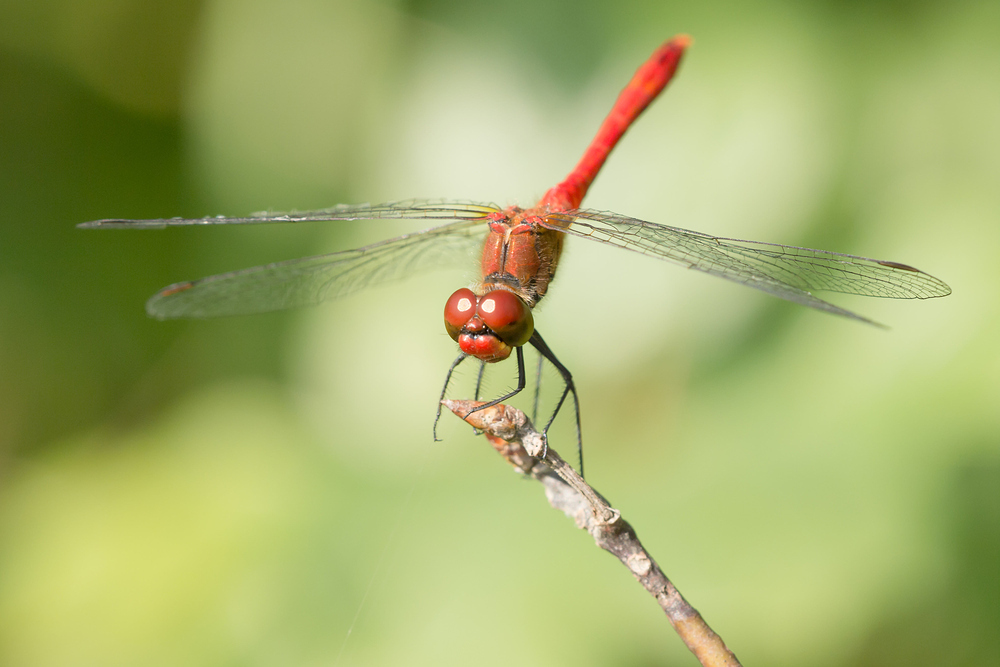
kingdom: Animalia
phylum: Arthropoda
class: Insecta
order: Odonata
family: Libellulidae
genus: Sympetrum
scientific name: Sympetrum sanguineum
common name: Ruddy darter
